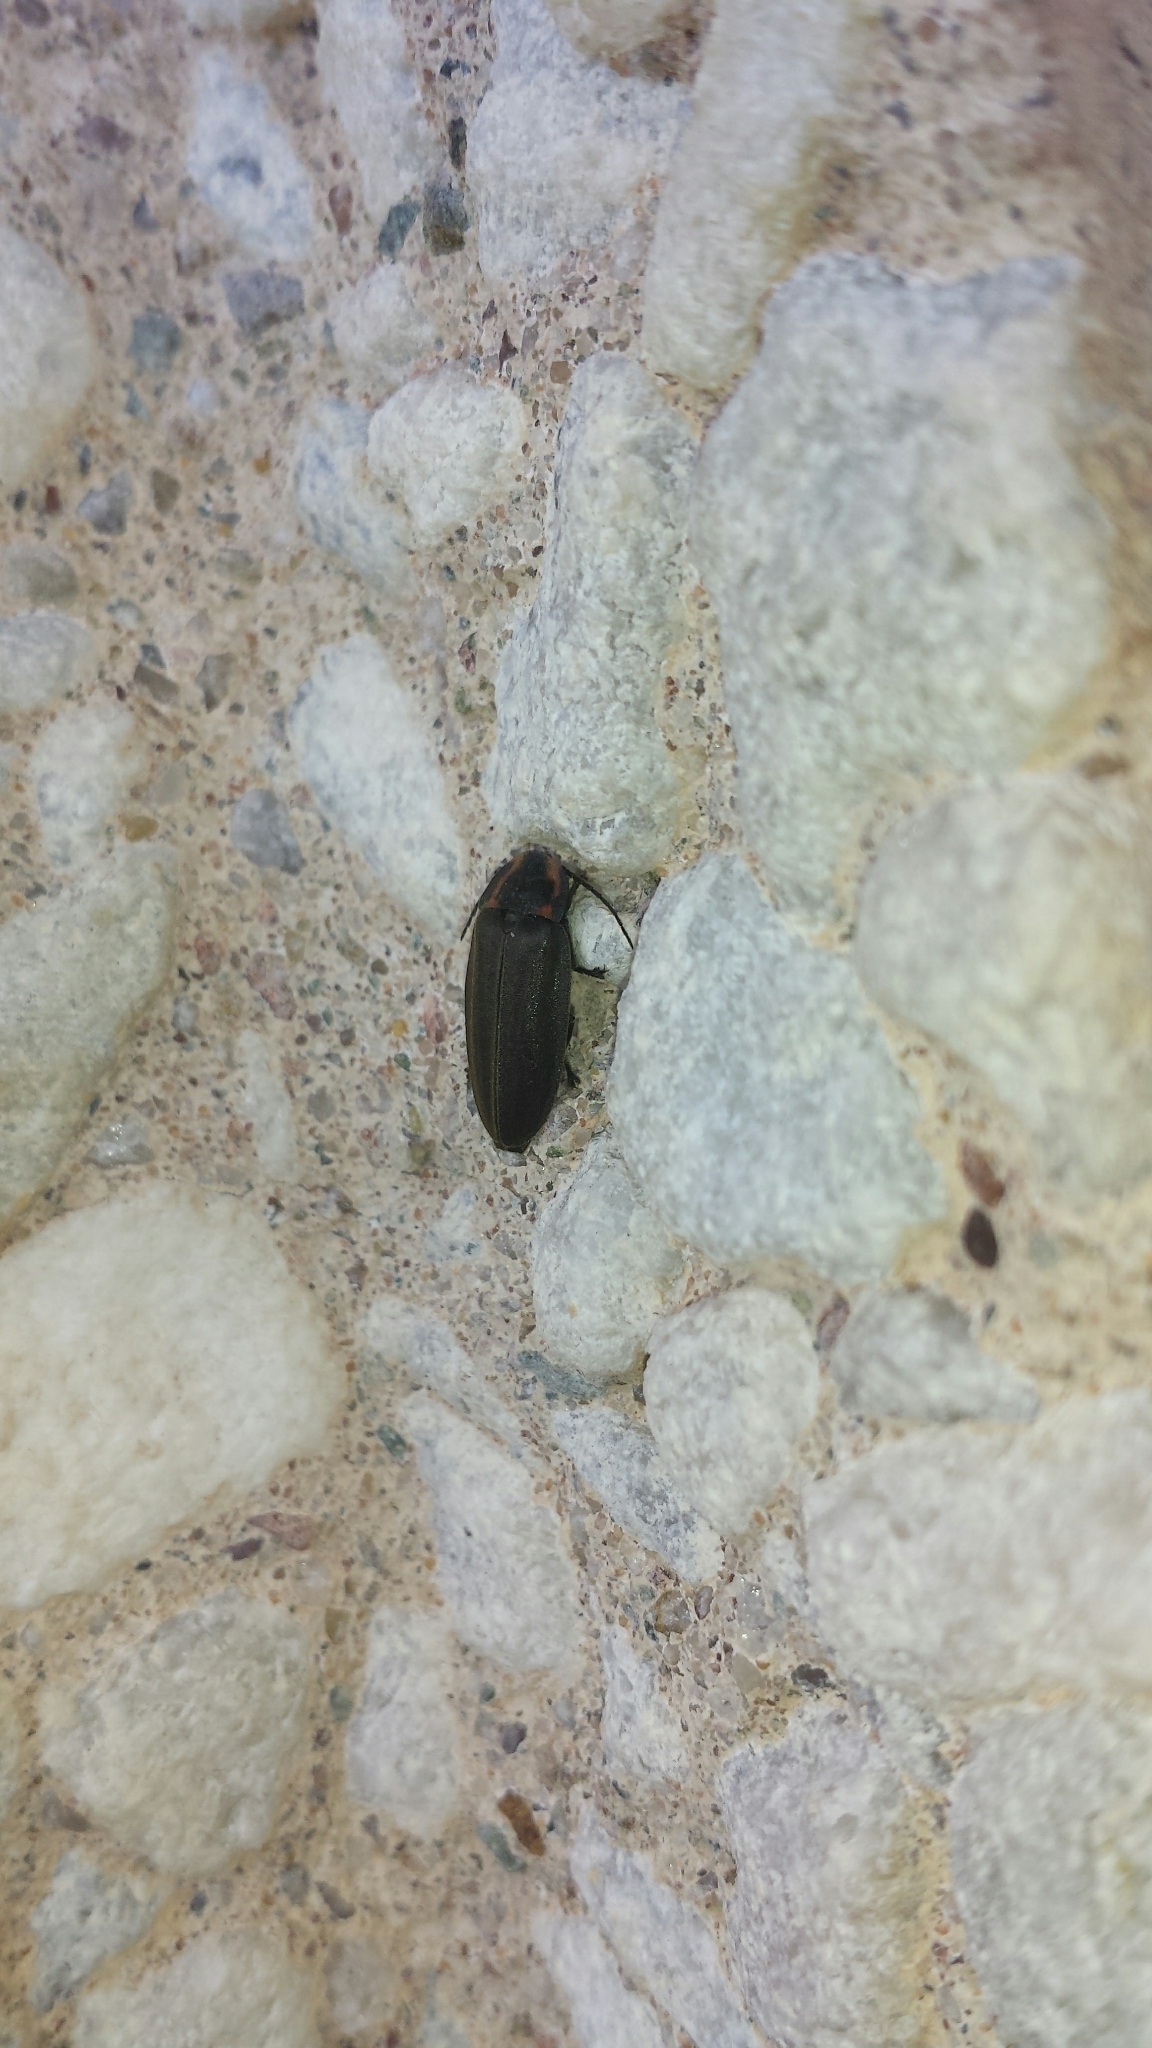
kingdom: Animalia
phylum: Arthropoda
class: Insecta
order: Coleoptera
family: Lampyridae
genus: Photinus
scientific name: Photinus corrusca
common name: Winter firefly
